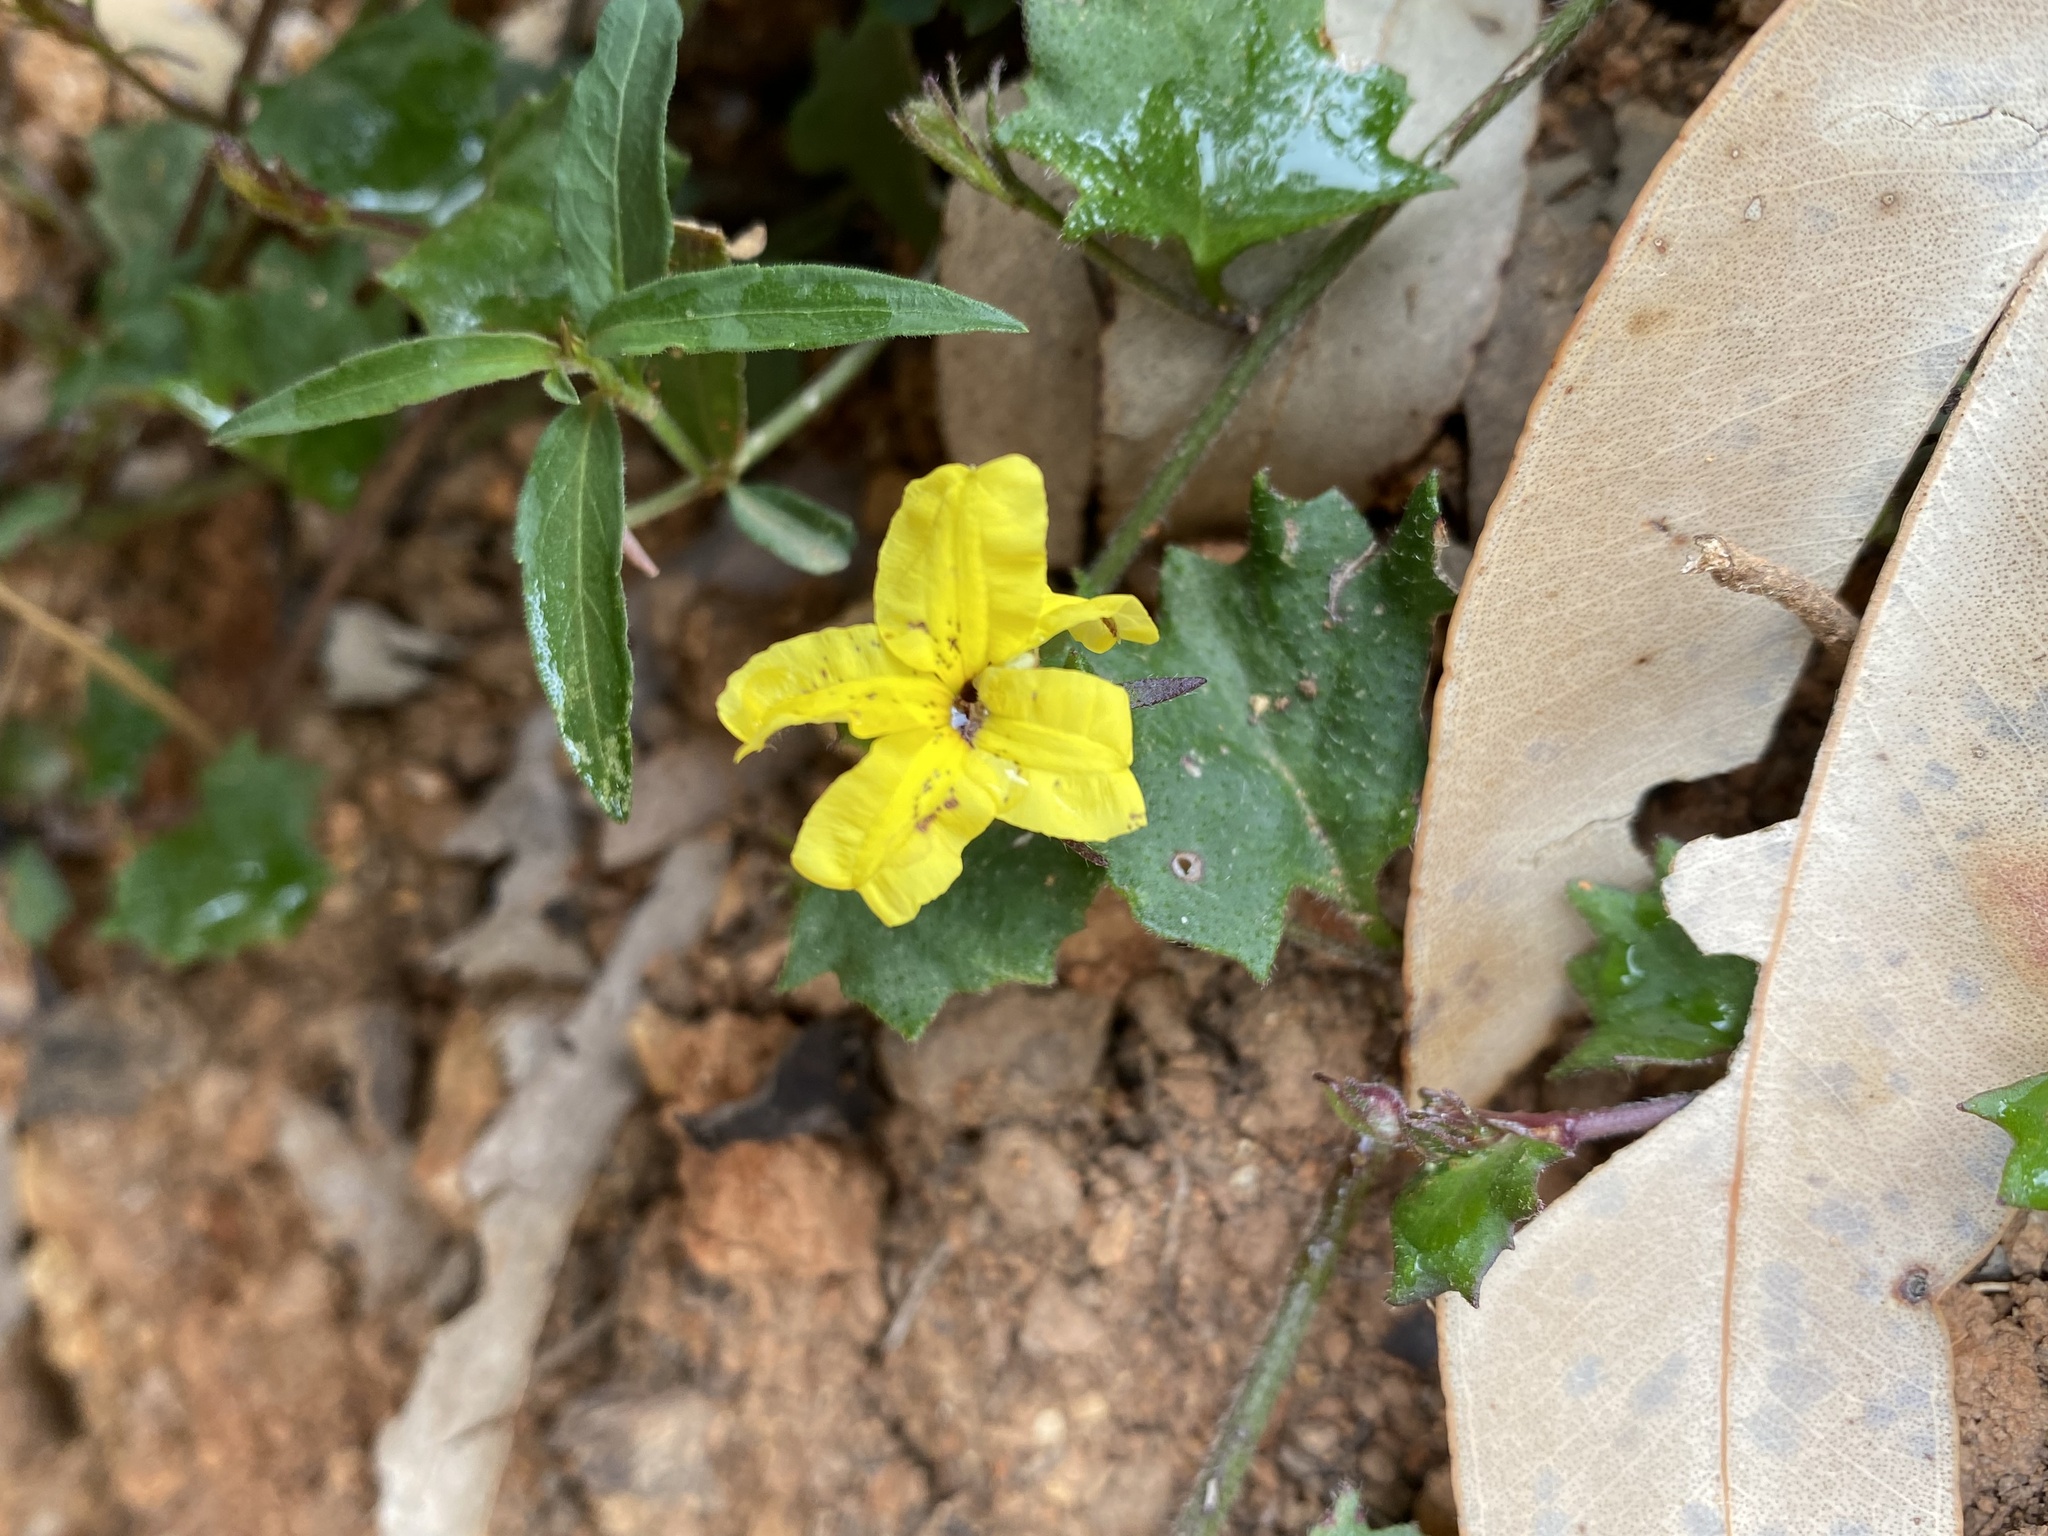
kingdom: Plantae
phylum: Tracheophyta
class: Magnoliopsida
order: Asterales
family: Goodeniaceae
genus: Goodenia
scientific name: Goodenia rotundifolia
